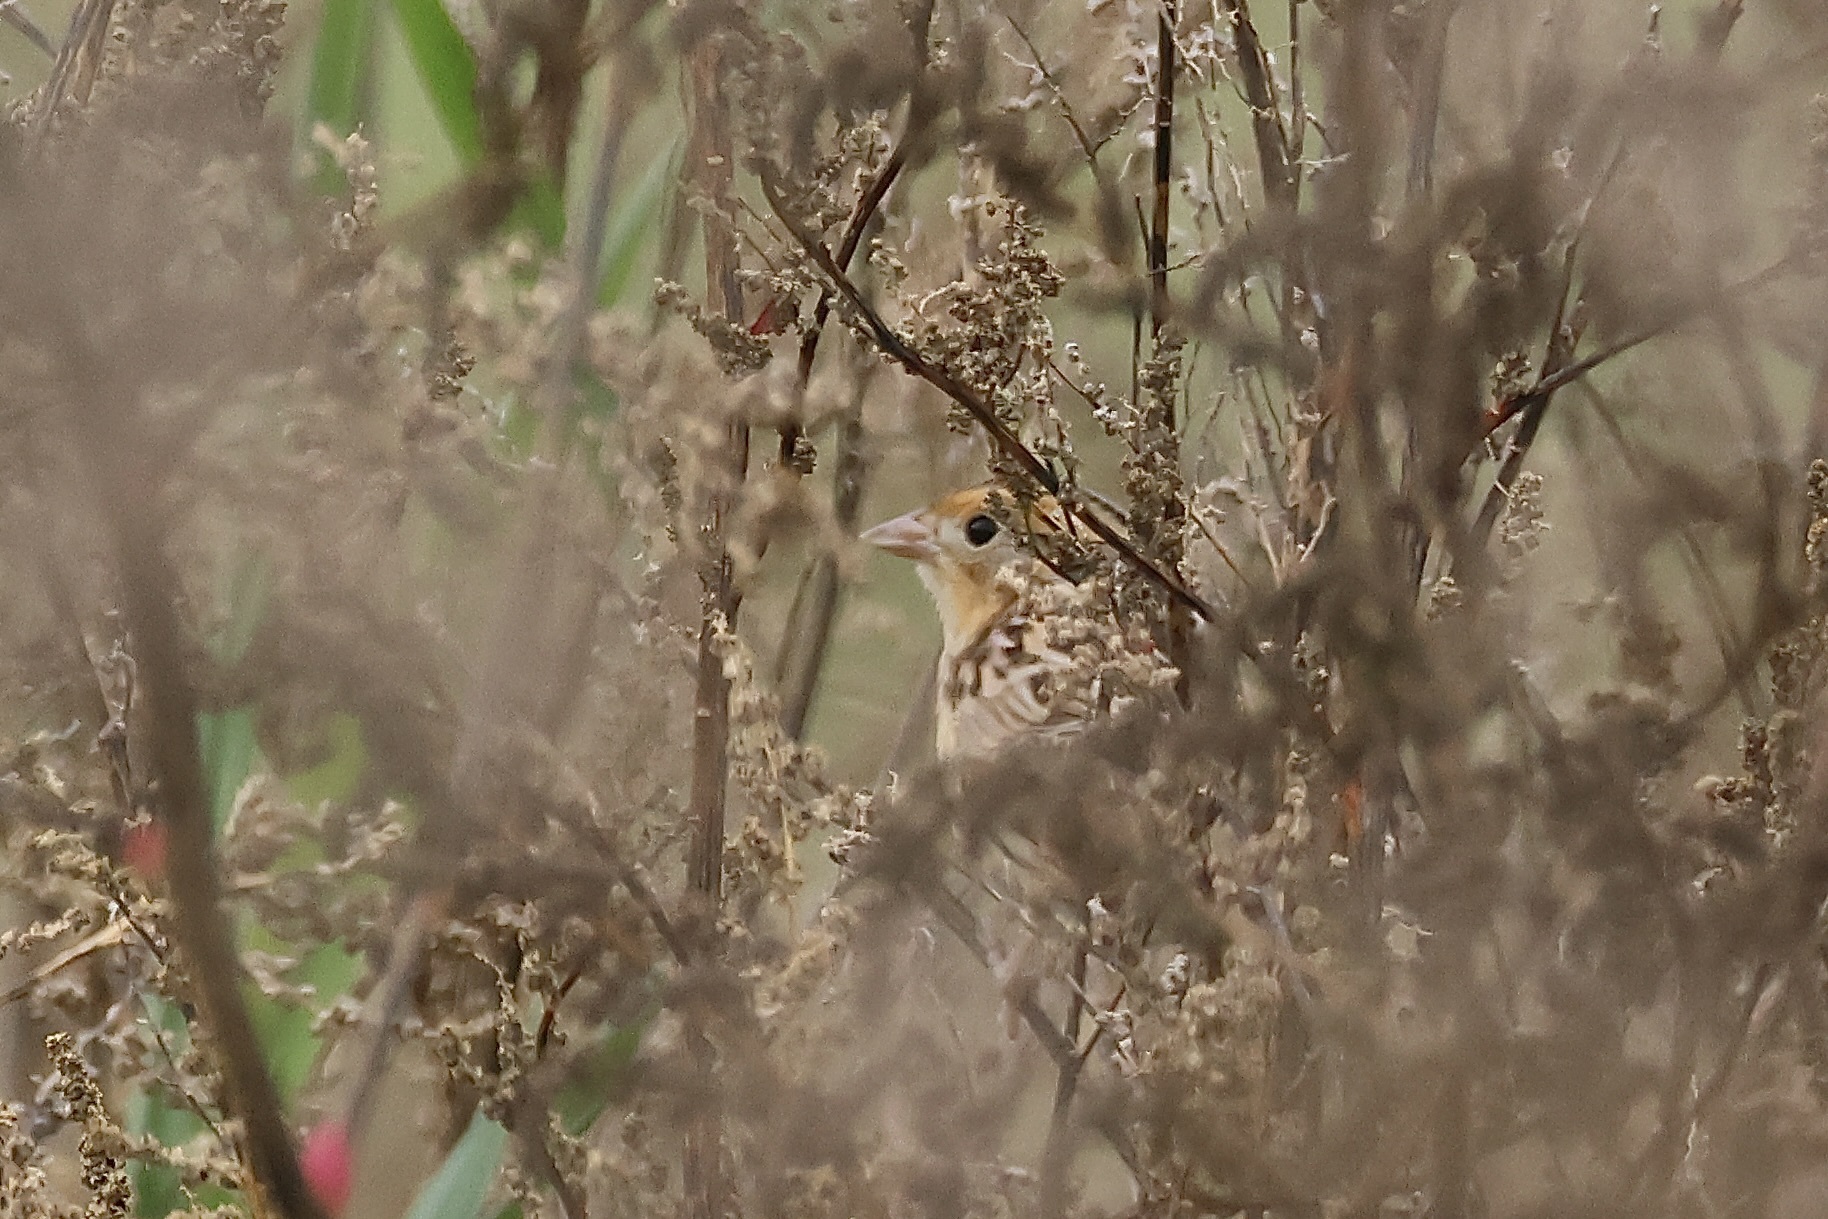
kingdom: Animalia
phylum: Chordata
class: Aves
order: Passeriformes
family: Passerellidae
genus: Ammospiza
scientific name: Ammospiza leconteii
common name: Le conte's sparrow
